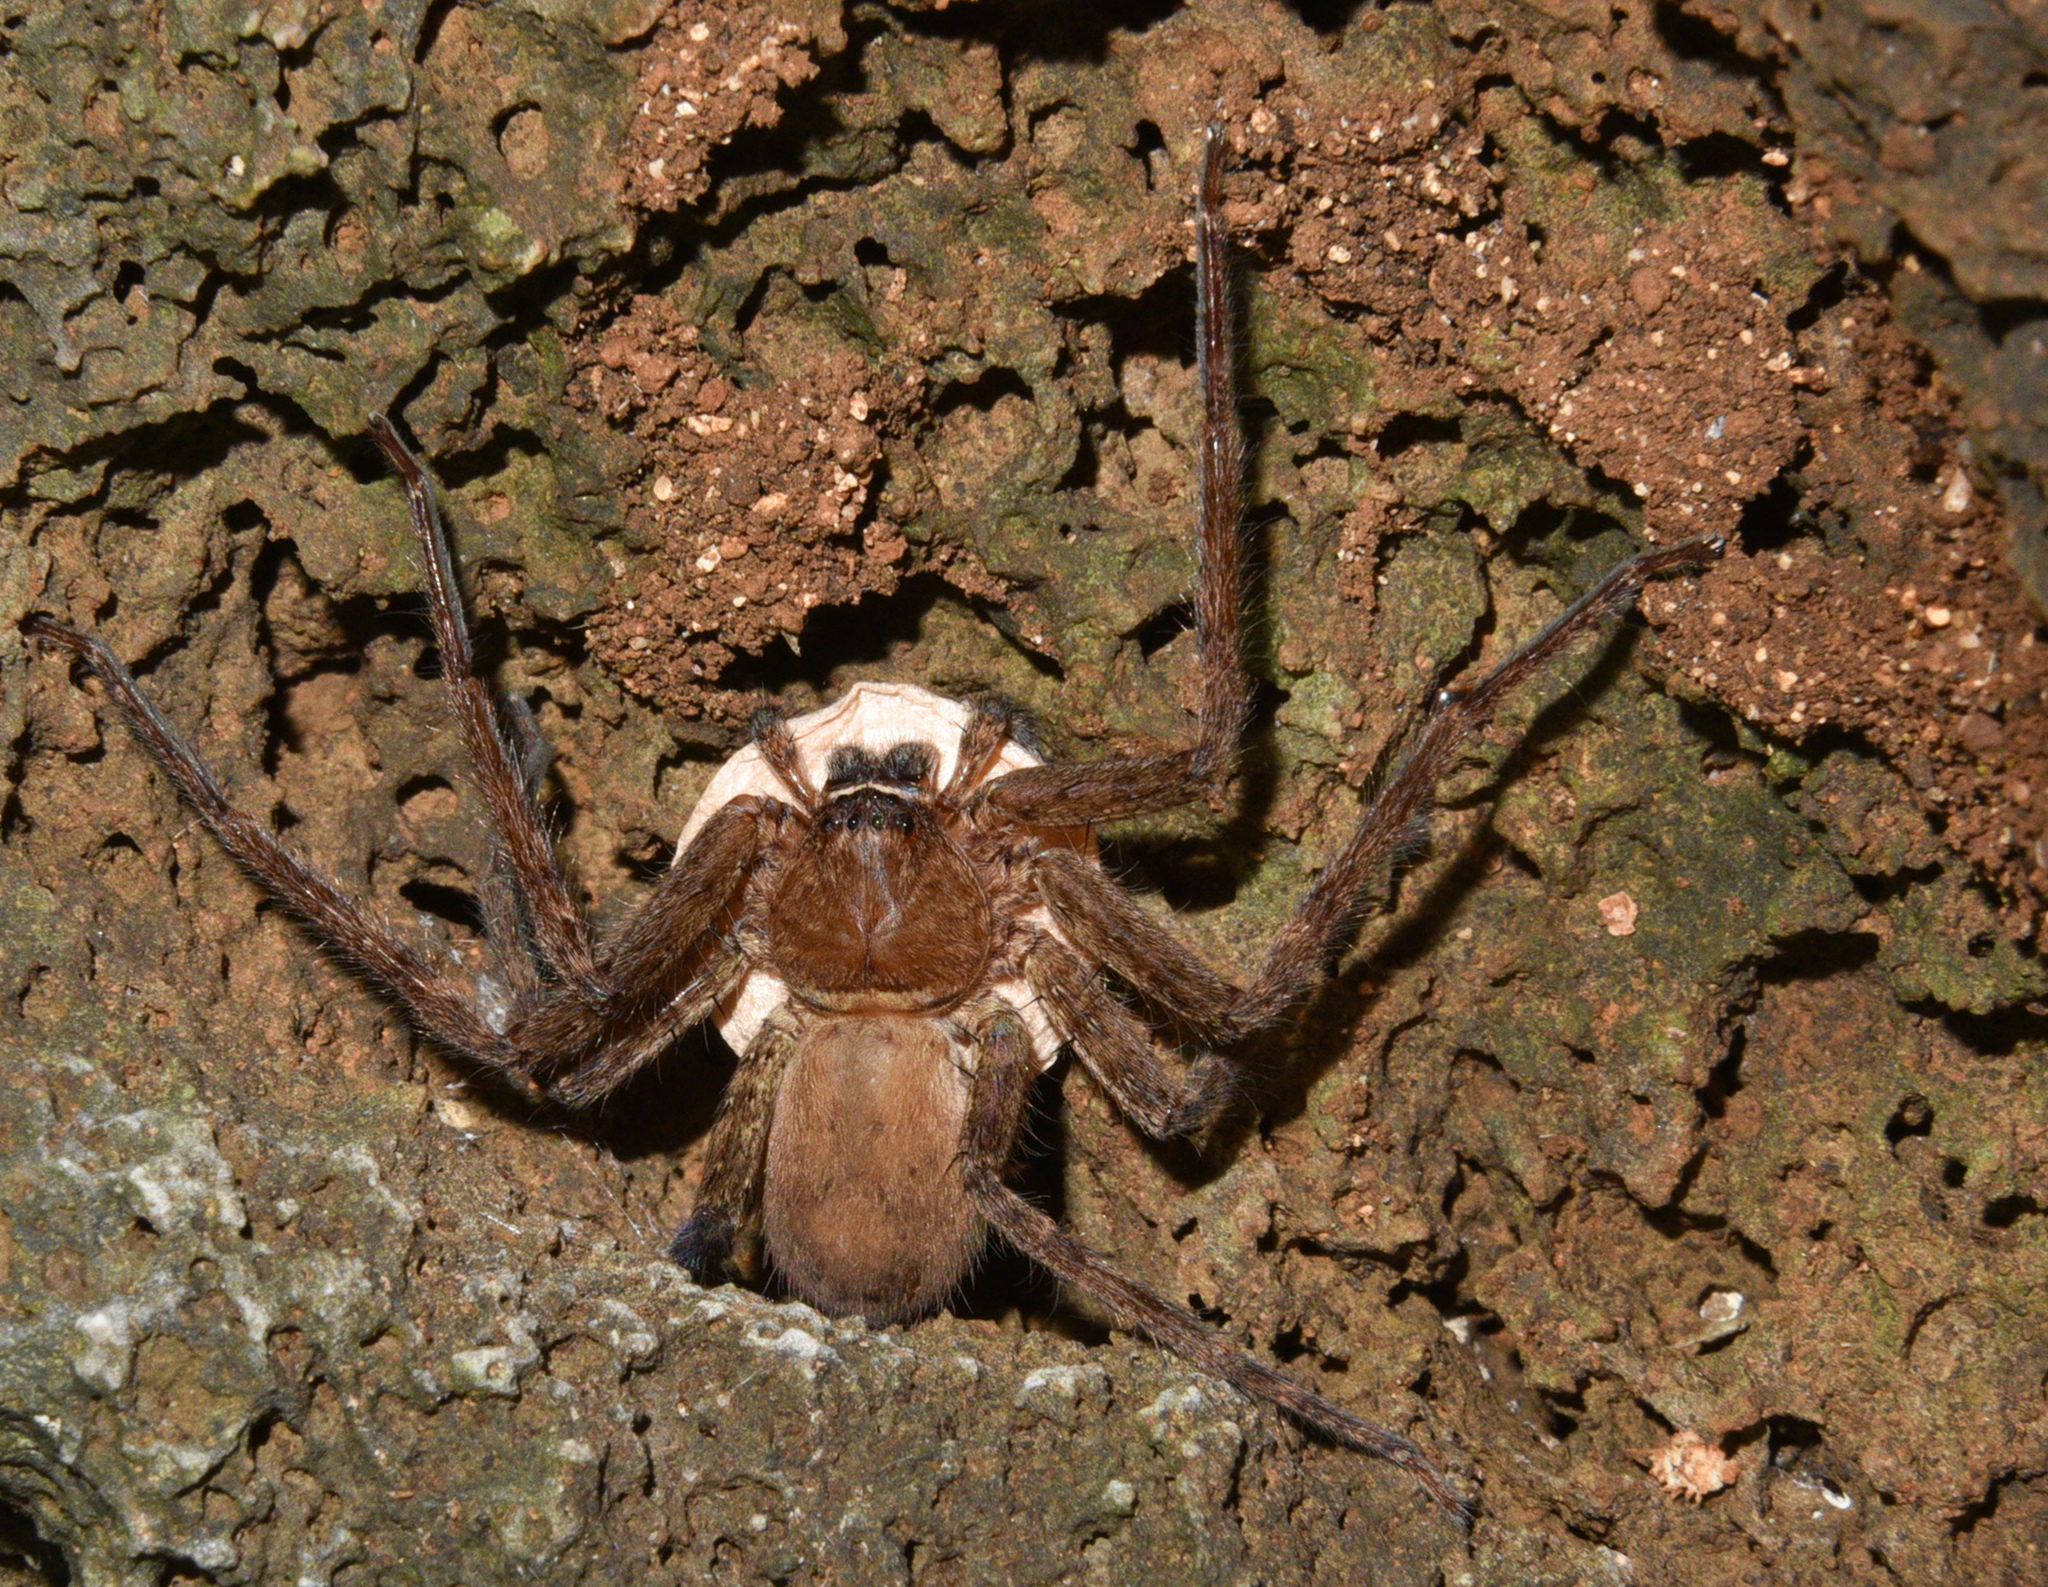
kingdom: Animalia
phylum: Arthropoda
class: Arachnida
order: Araneae
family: Sparassidae
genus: Heteropoda
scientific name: Heteropoda venatoria
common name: Huntsman spider
